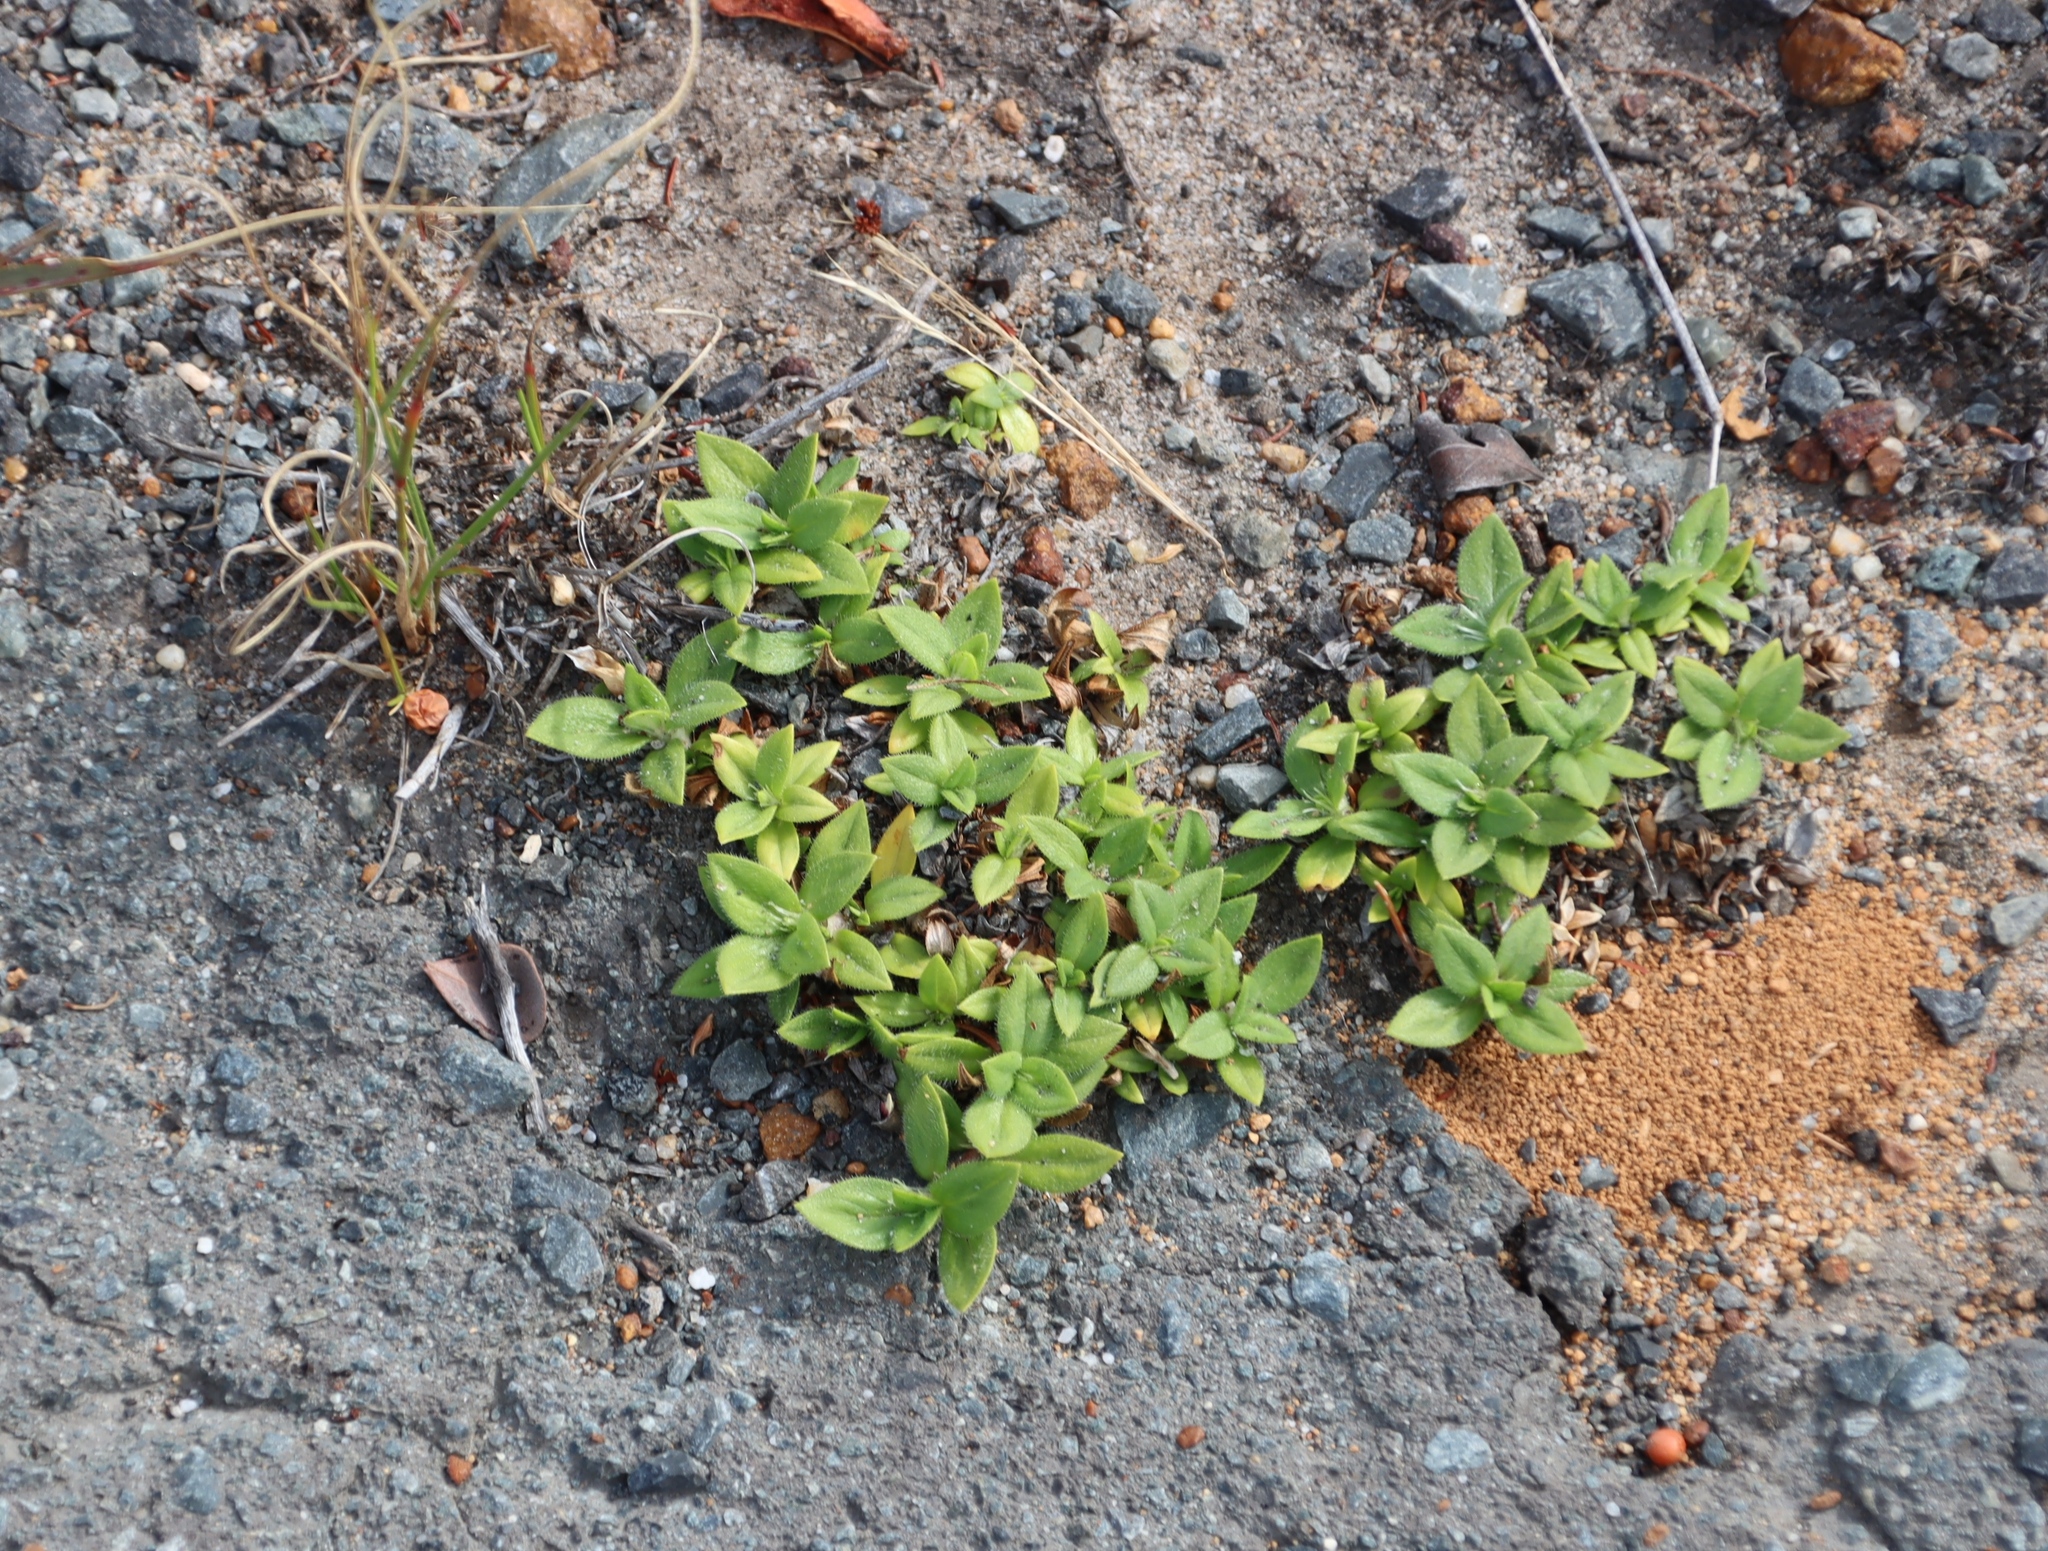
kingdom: Plantae
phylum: Tracheophyta
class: Magnoliopsida
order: Gentianales
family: Rubiaceae
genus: Richardia
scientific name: Richardia brasiliensis
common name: Tropical mexican clover
